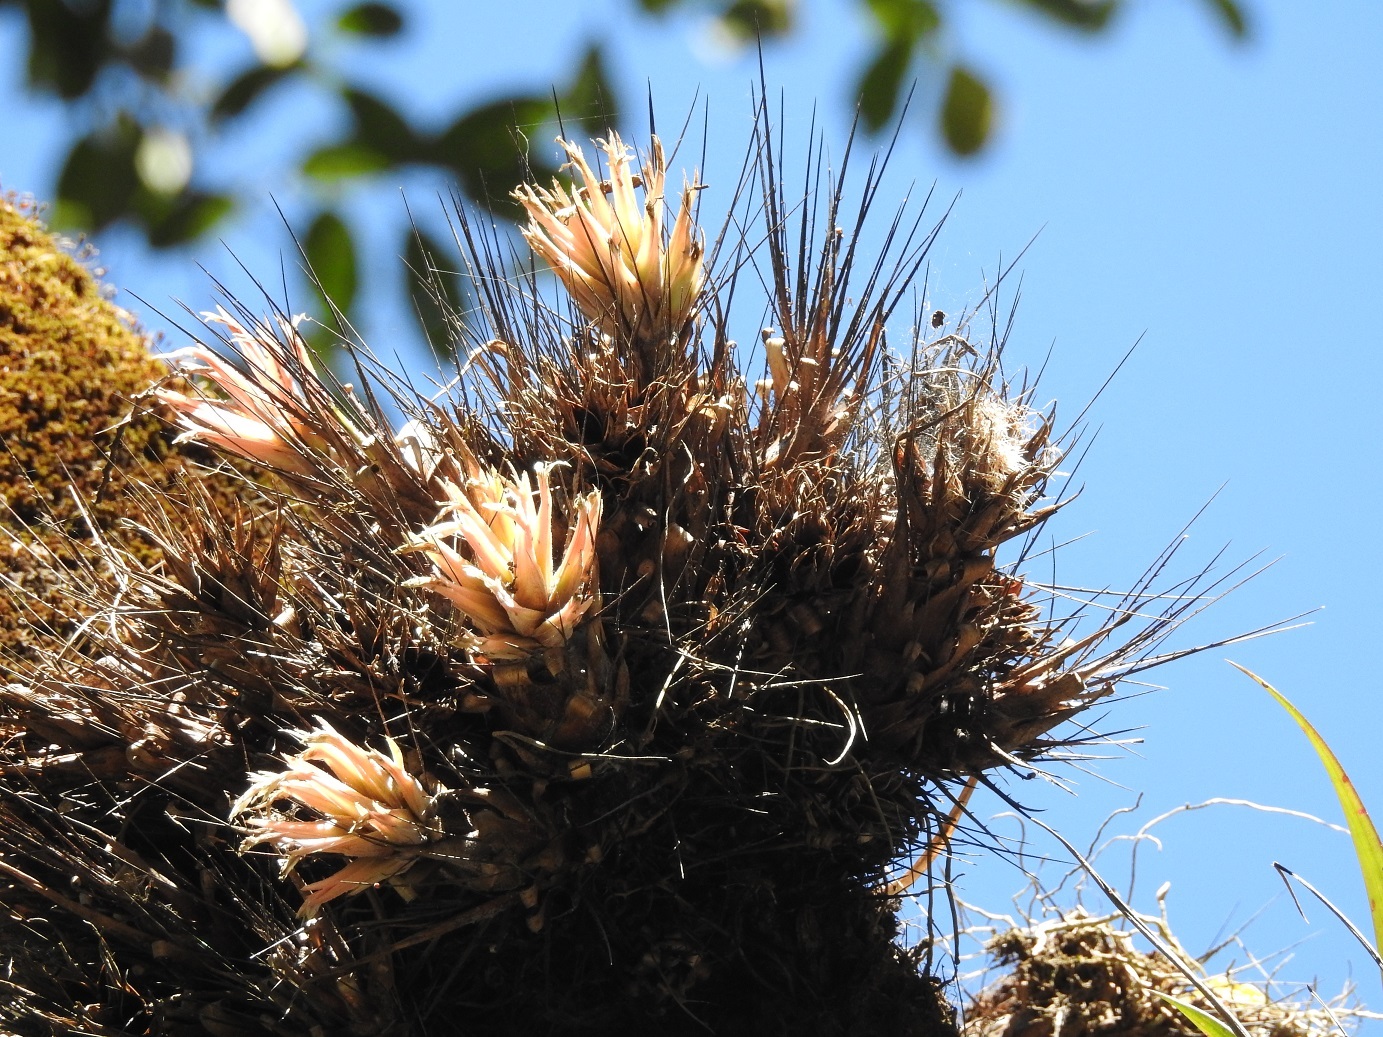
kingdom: Plantae
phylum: Tracheophyta
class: Liliopsida
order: Poales
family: Bromeliaceae
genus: Pitcairnia
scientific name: Pitcairnia heterophylla
